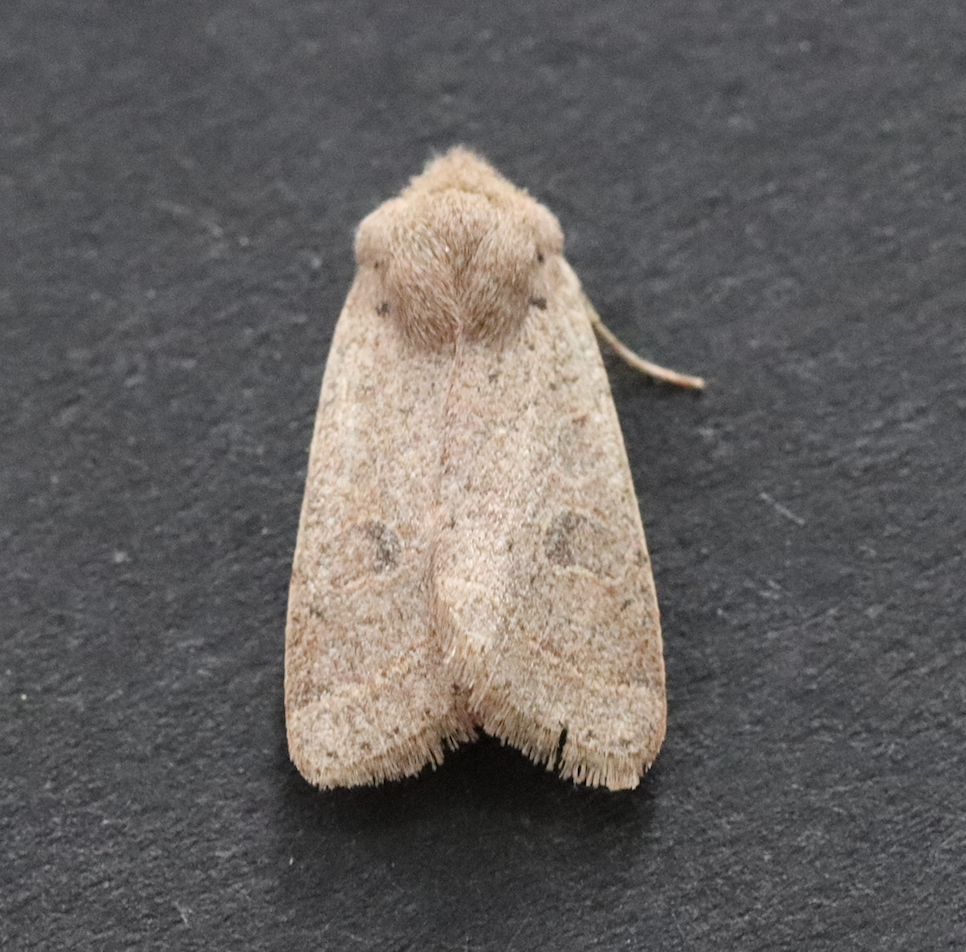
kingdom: Animalia
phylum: Arthropoda
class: Insecta
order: Lepidoptera
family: Noctuidae
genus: Orthosia
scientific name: Orthosia cerasi
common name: Common quaker
